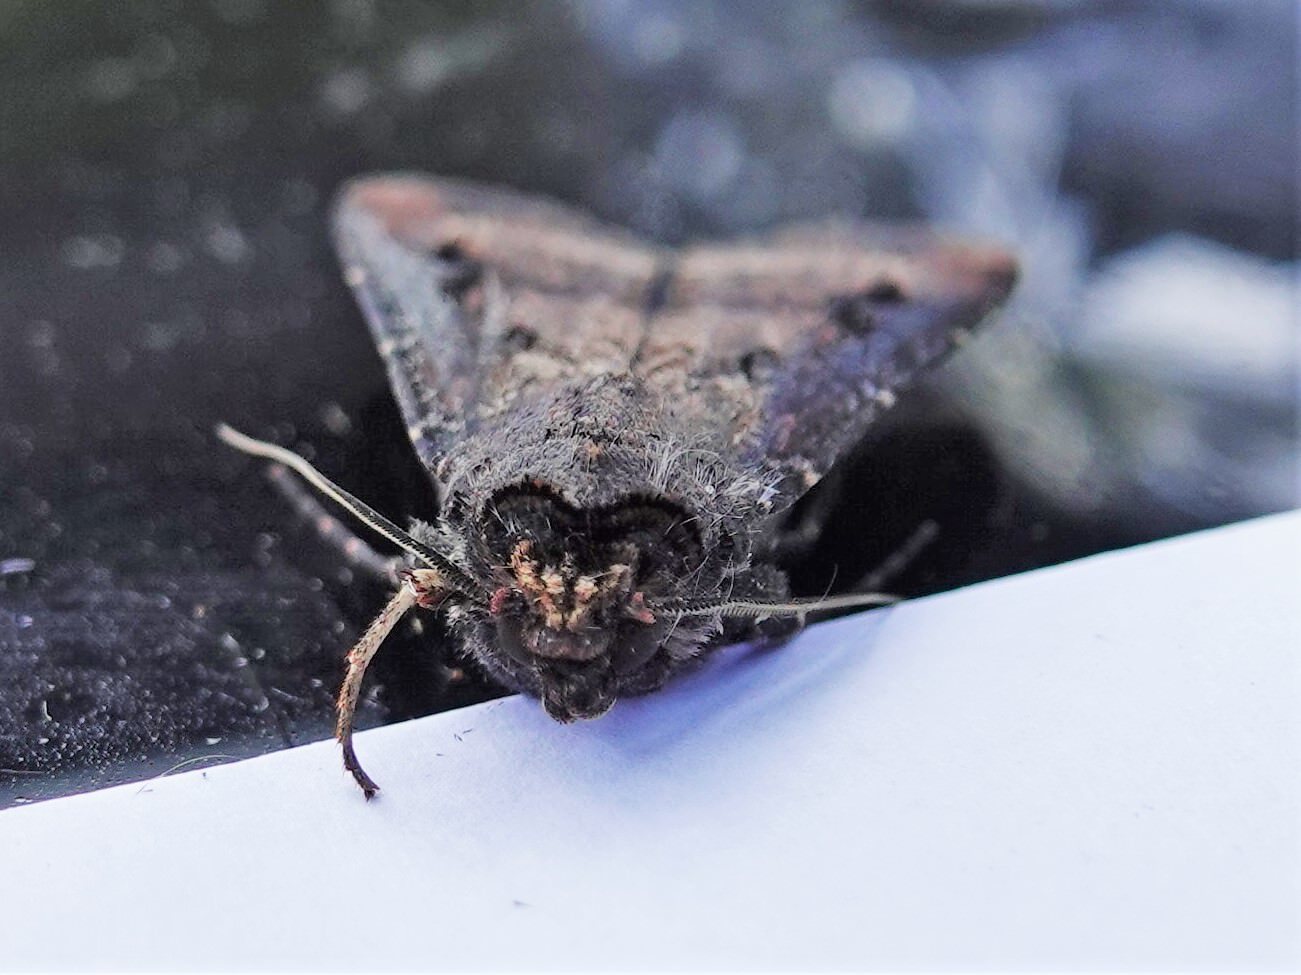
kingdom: Animalia
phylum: Arthropoda
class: Insecta
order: Lepidoptera
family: Noctuidae
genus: Agrotis
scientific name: Agrotis ipsilon
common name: Dark sword-grass
